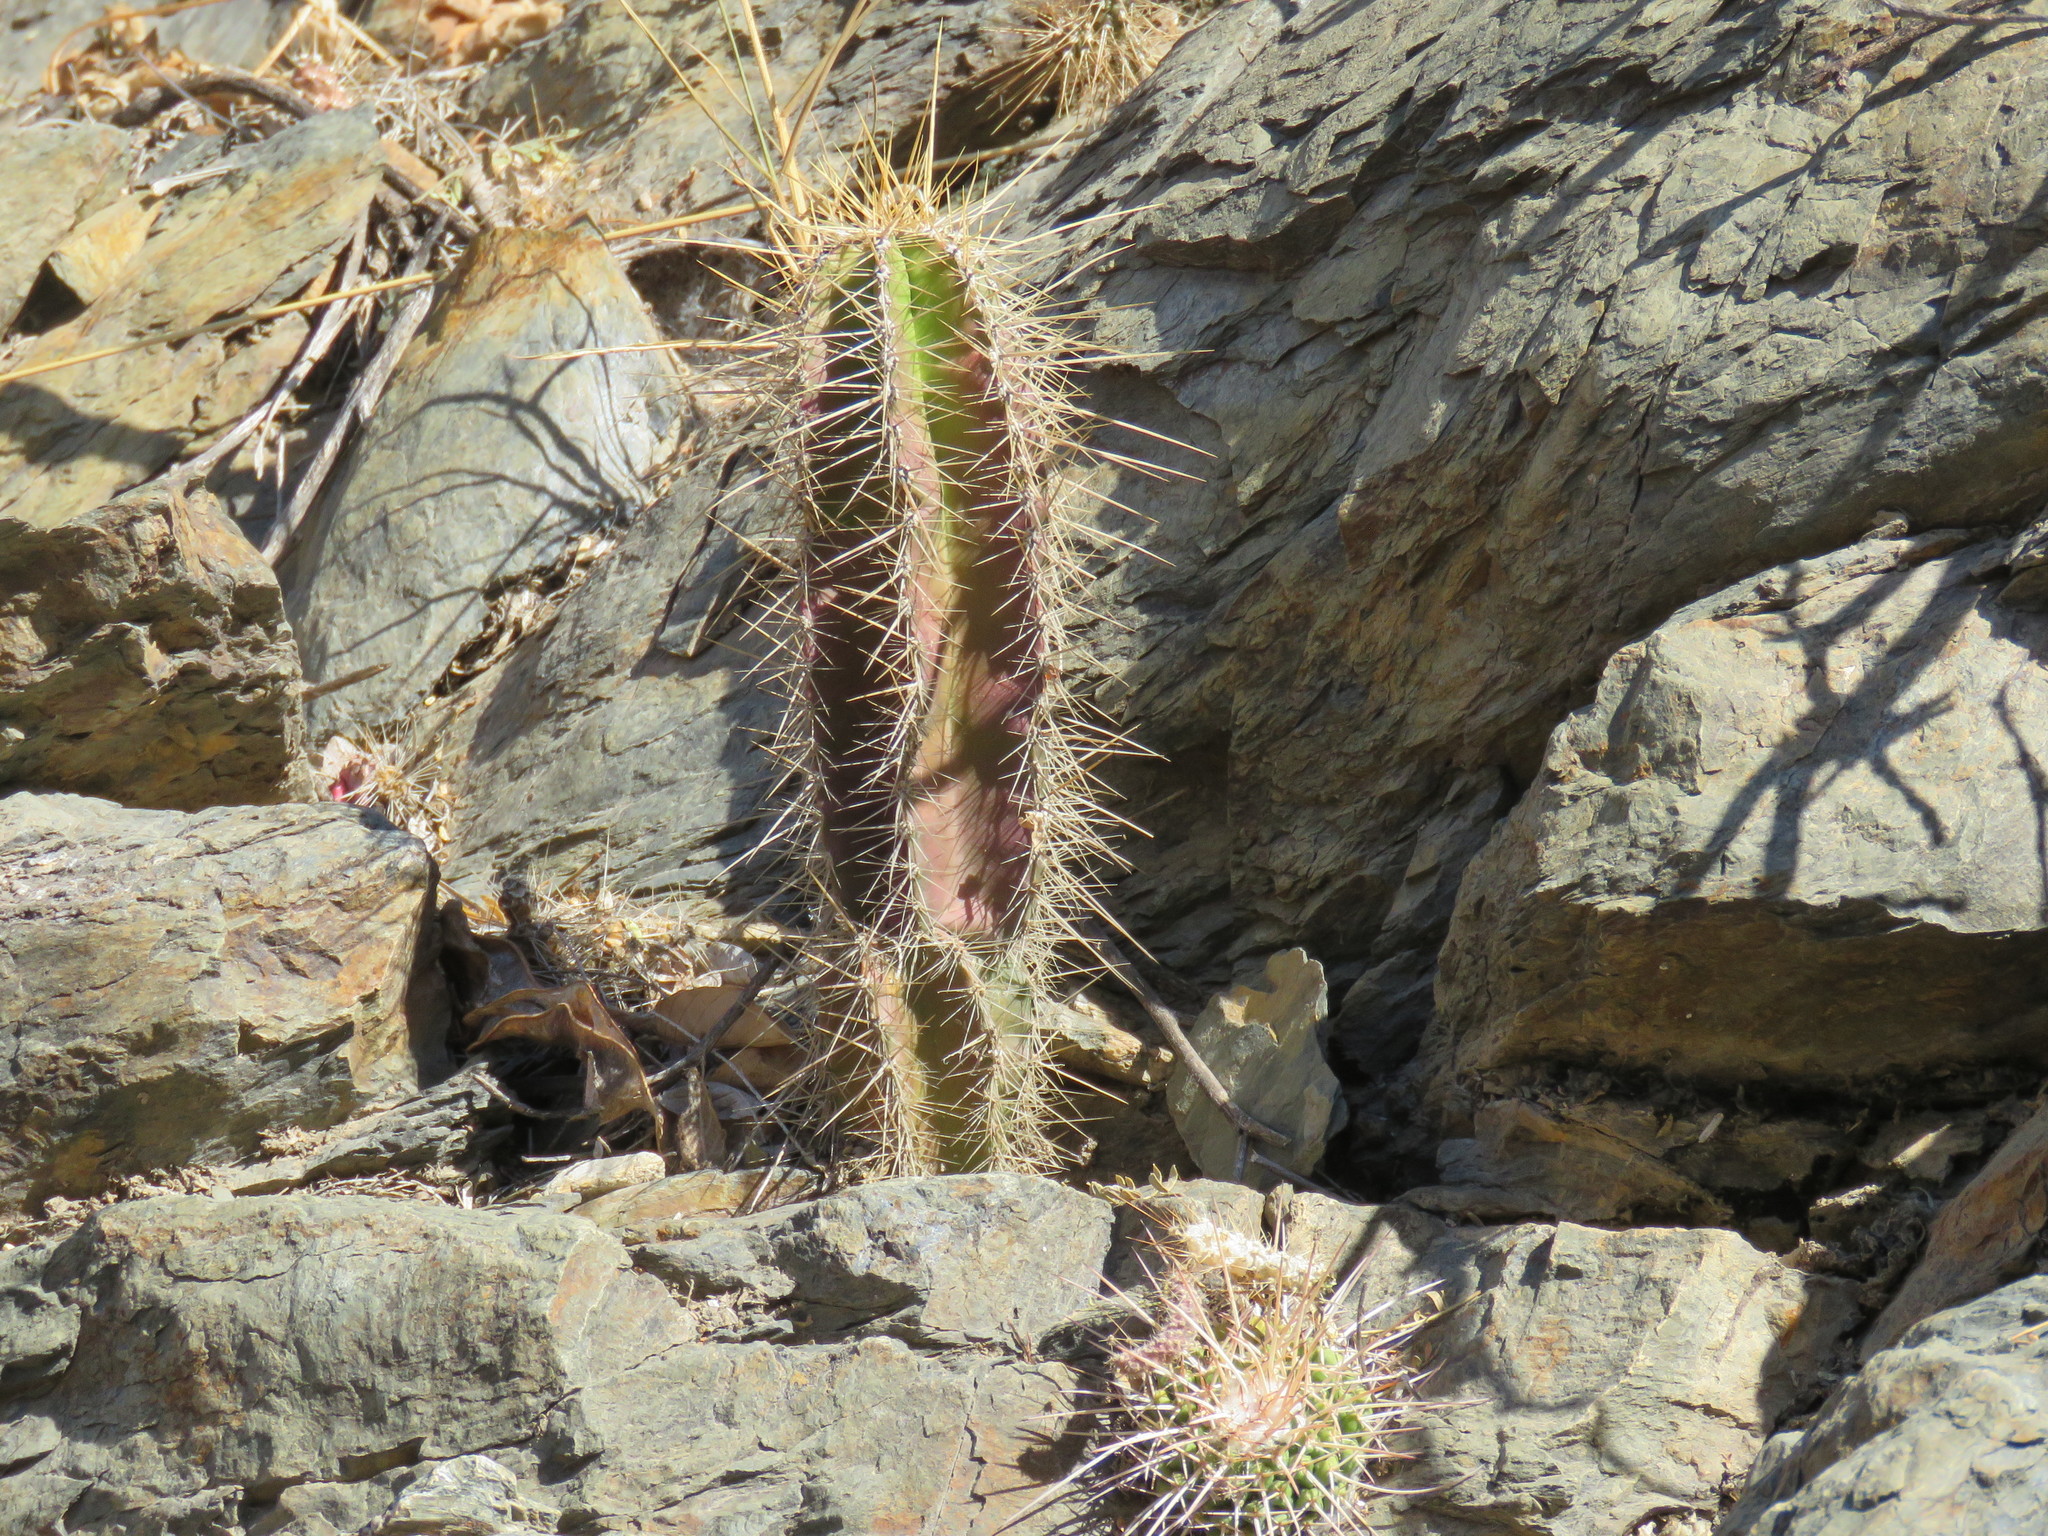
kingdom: Plantae
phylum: Tracheophyta
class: Magnoliopsida
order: Caryophyllales
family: Cactaceae
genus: Stenocereus
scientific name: Stenocereus dumortieri
